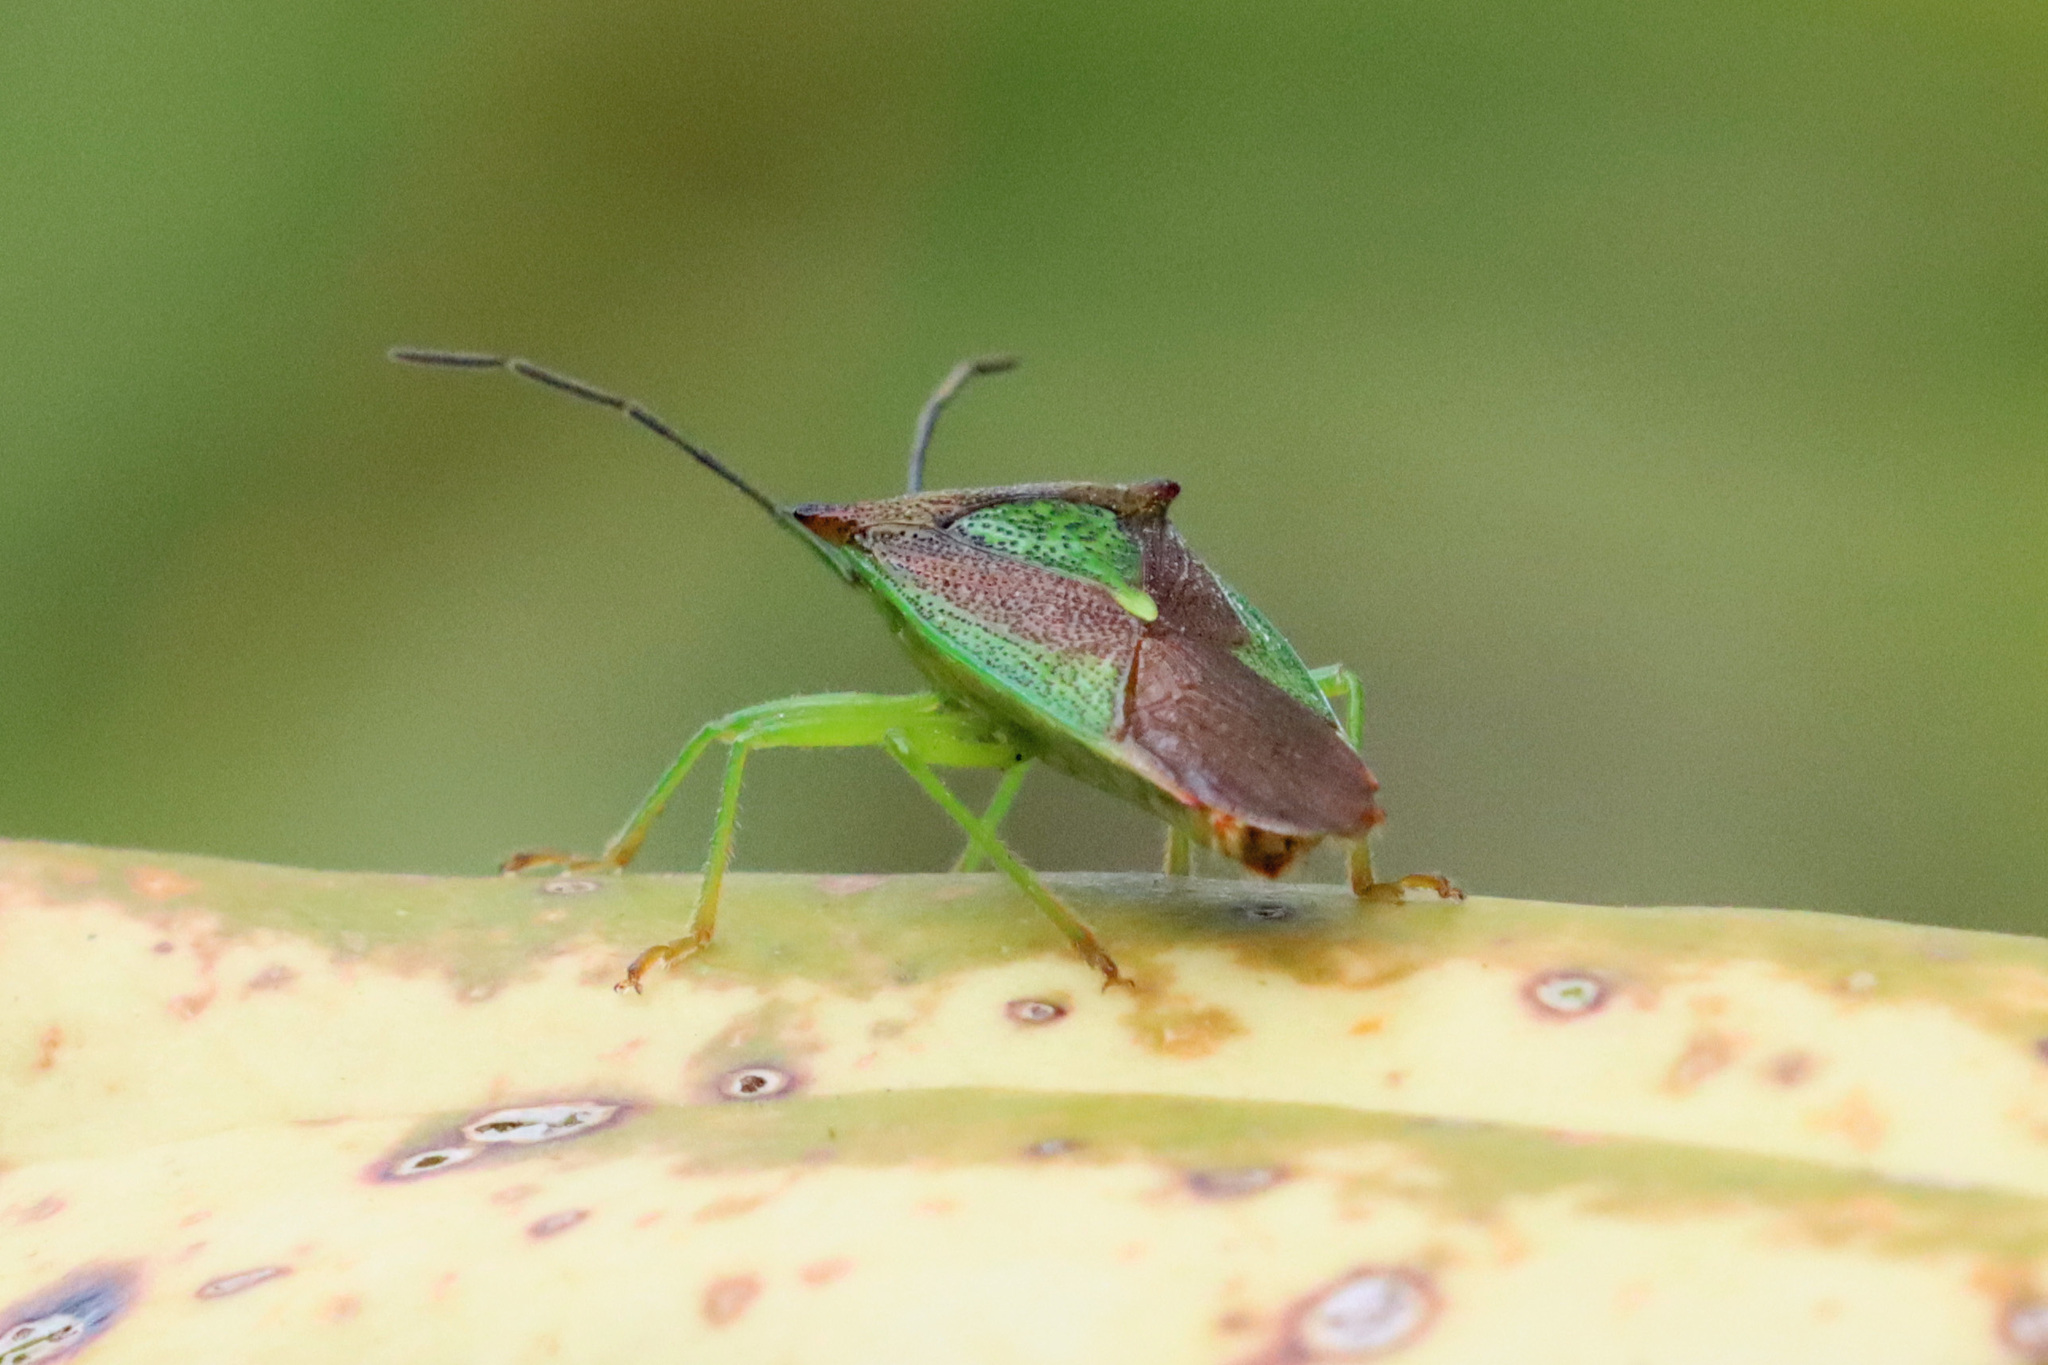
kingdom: Animalia
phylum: Arthropoda
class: Insecta
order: Hemiptera
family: Acanthosomatidae
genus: Acanthosoma
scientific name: Acanthosoma haemorrhoidale
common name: Hawthorn shieldbug
